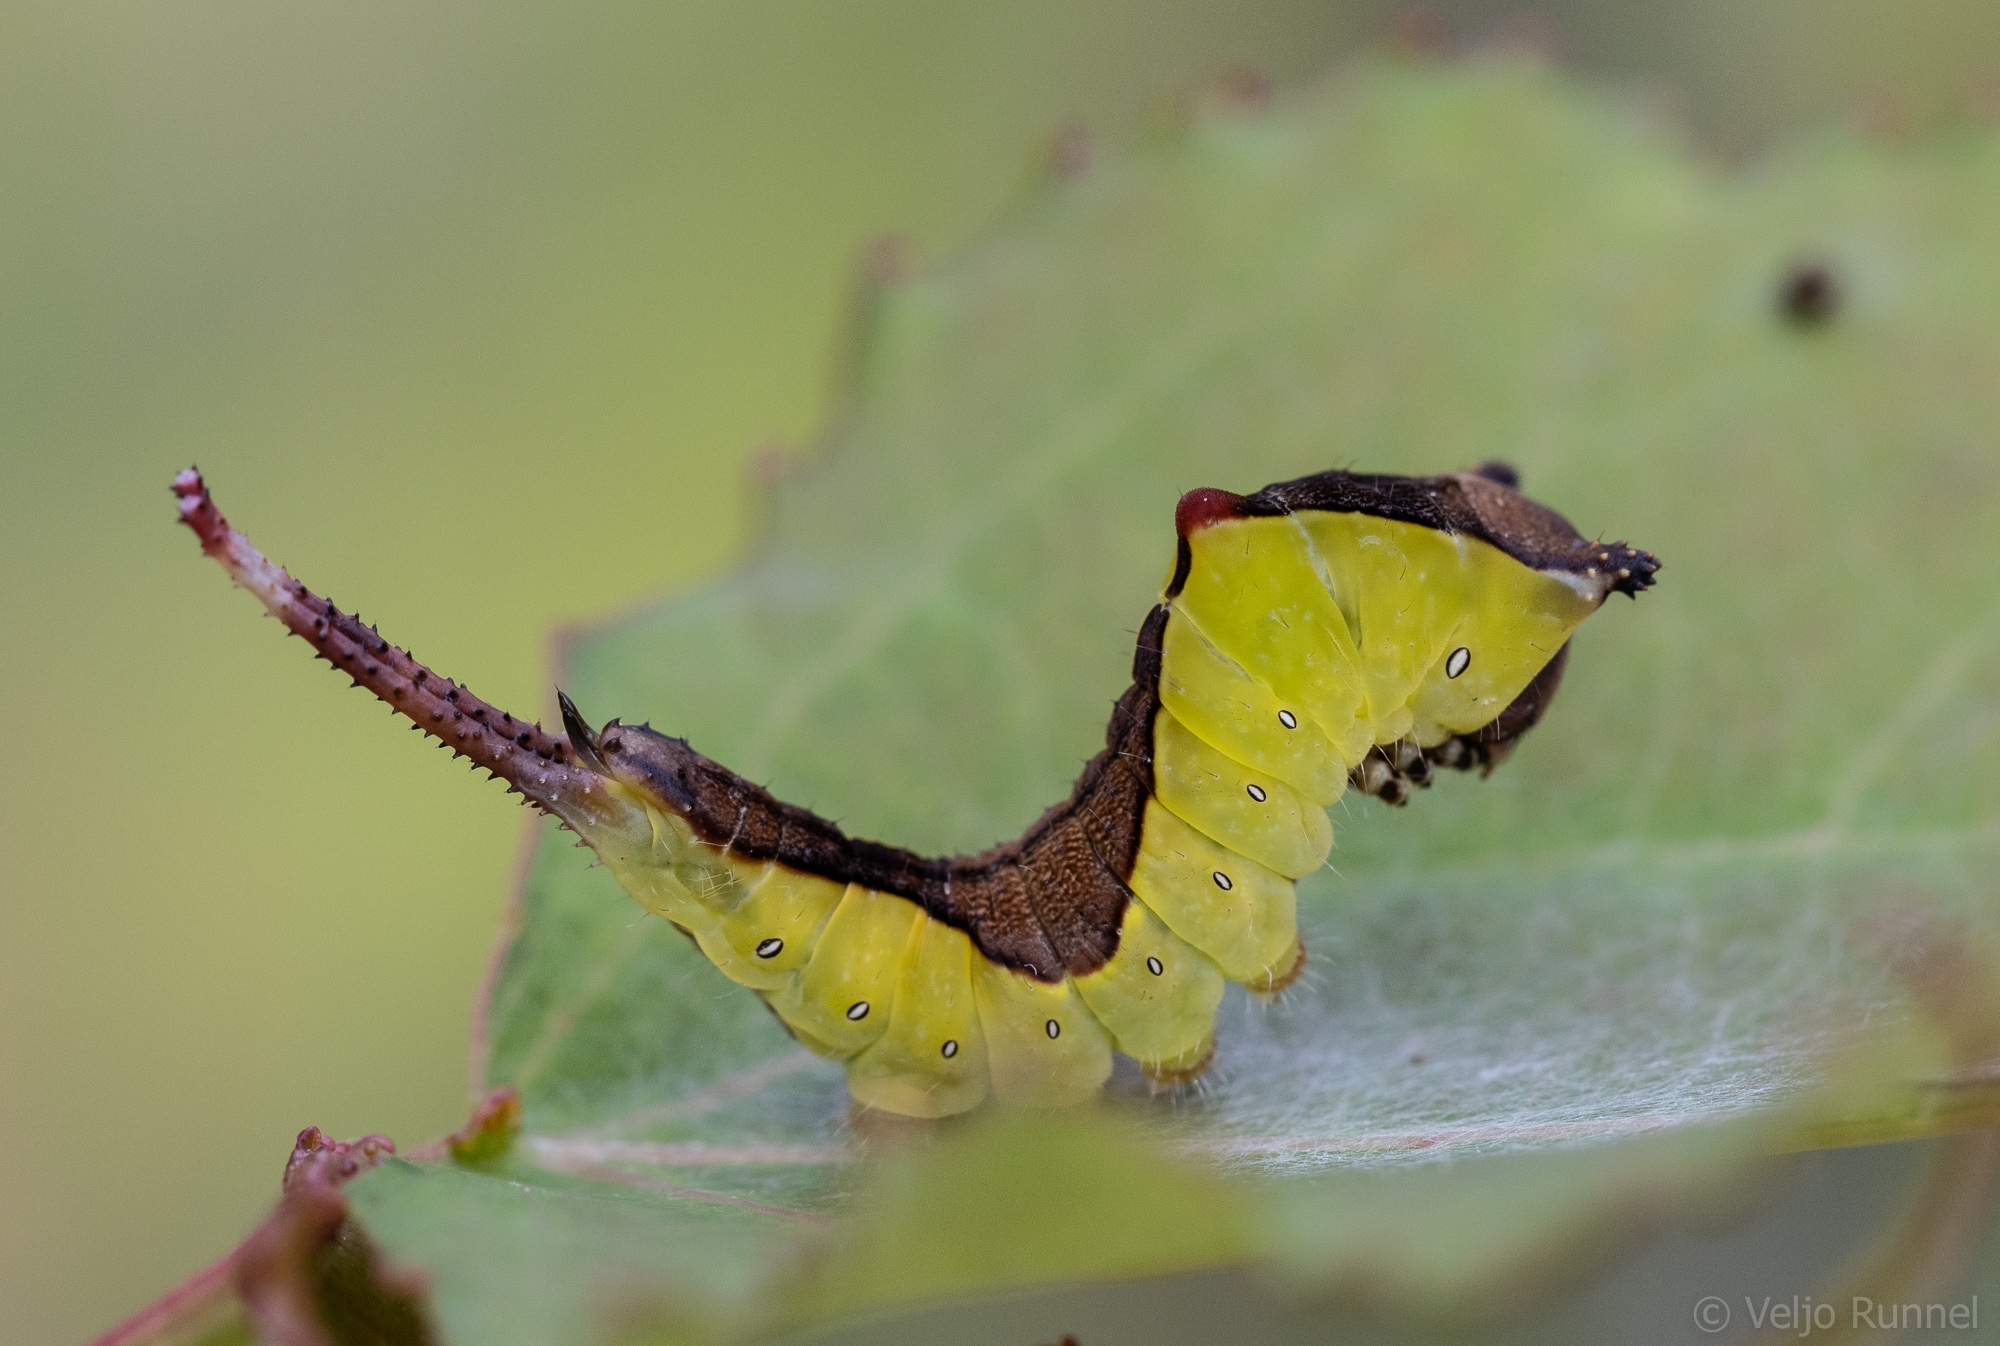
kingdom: Animalia
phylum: Arthropoda
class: Insecta
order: Lepidoptera
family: Notodontidae
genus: Cerura
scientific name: Cerura vinula
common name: Puss moth
